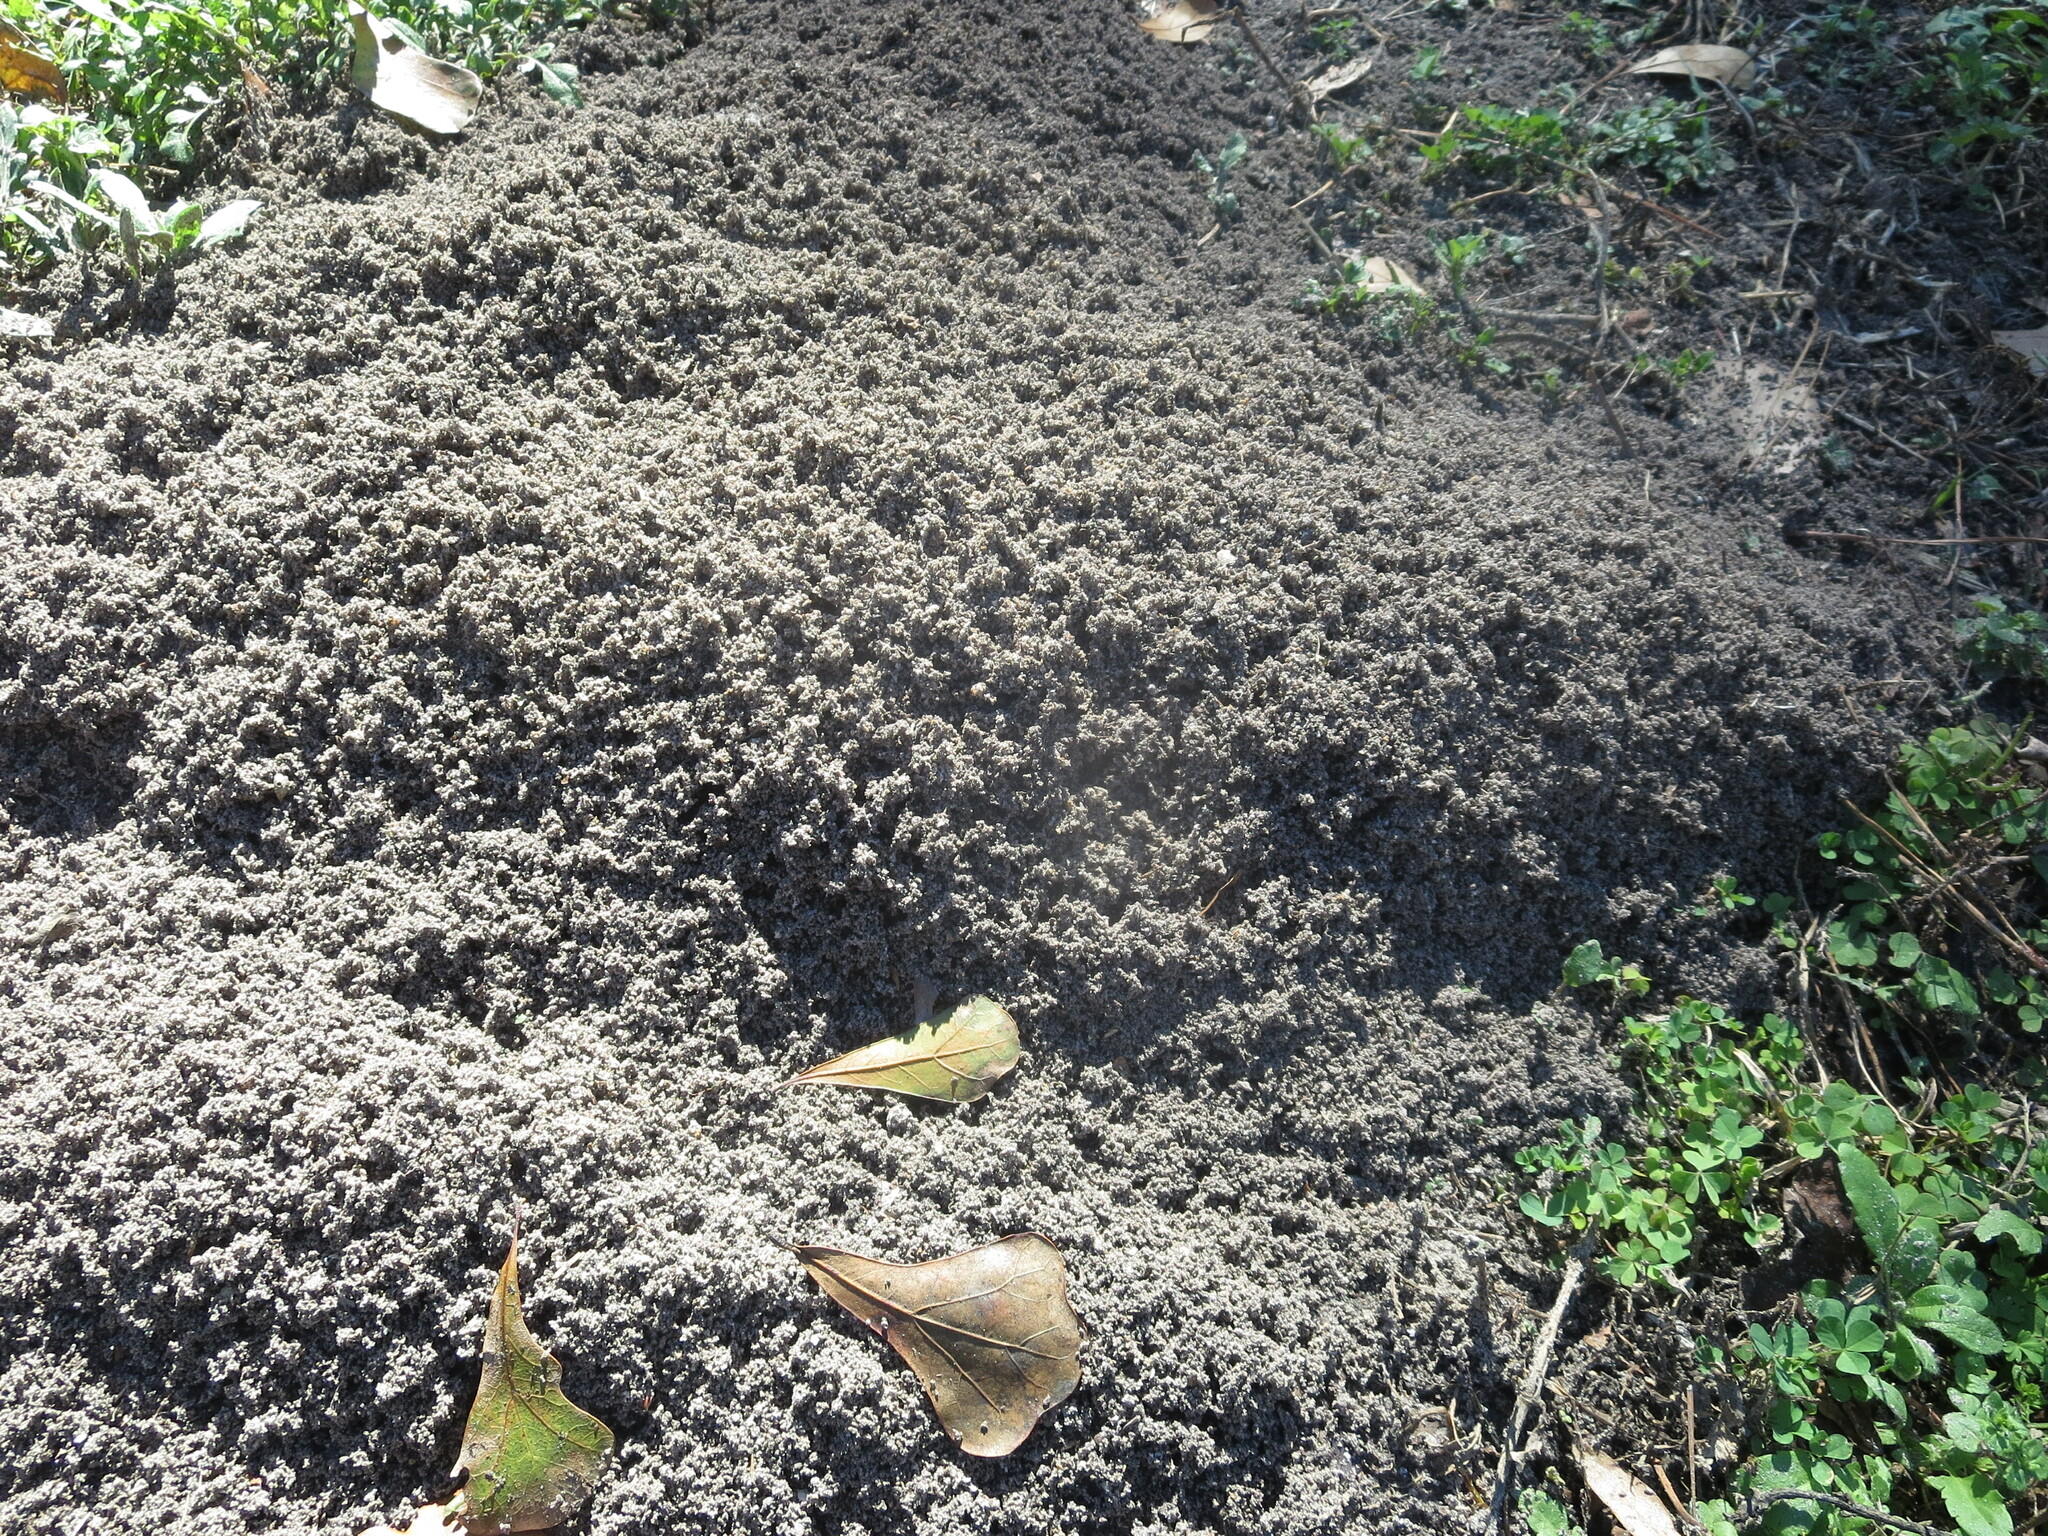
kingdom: Animalia
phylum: Arthropoda
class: Insecta
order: Hymenoptera
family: Formicidae
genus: Solenopsis
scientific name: Solenopsis invicta
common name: Red imported fire ant
